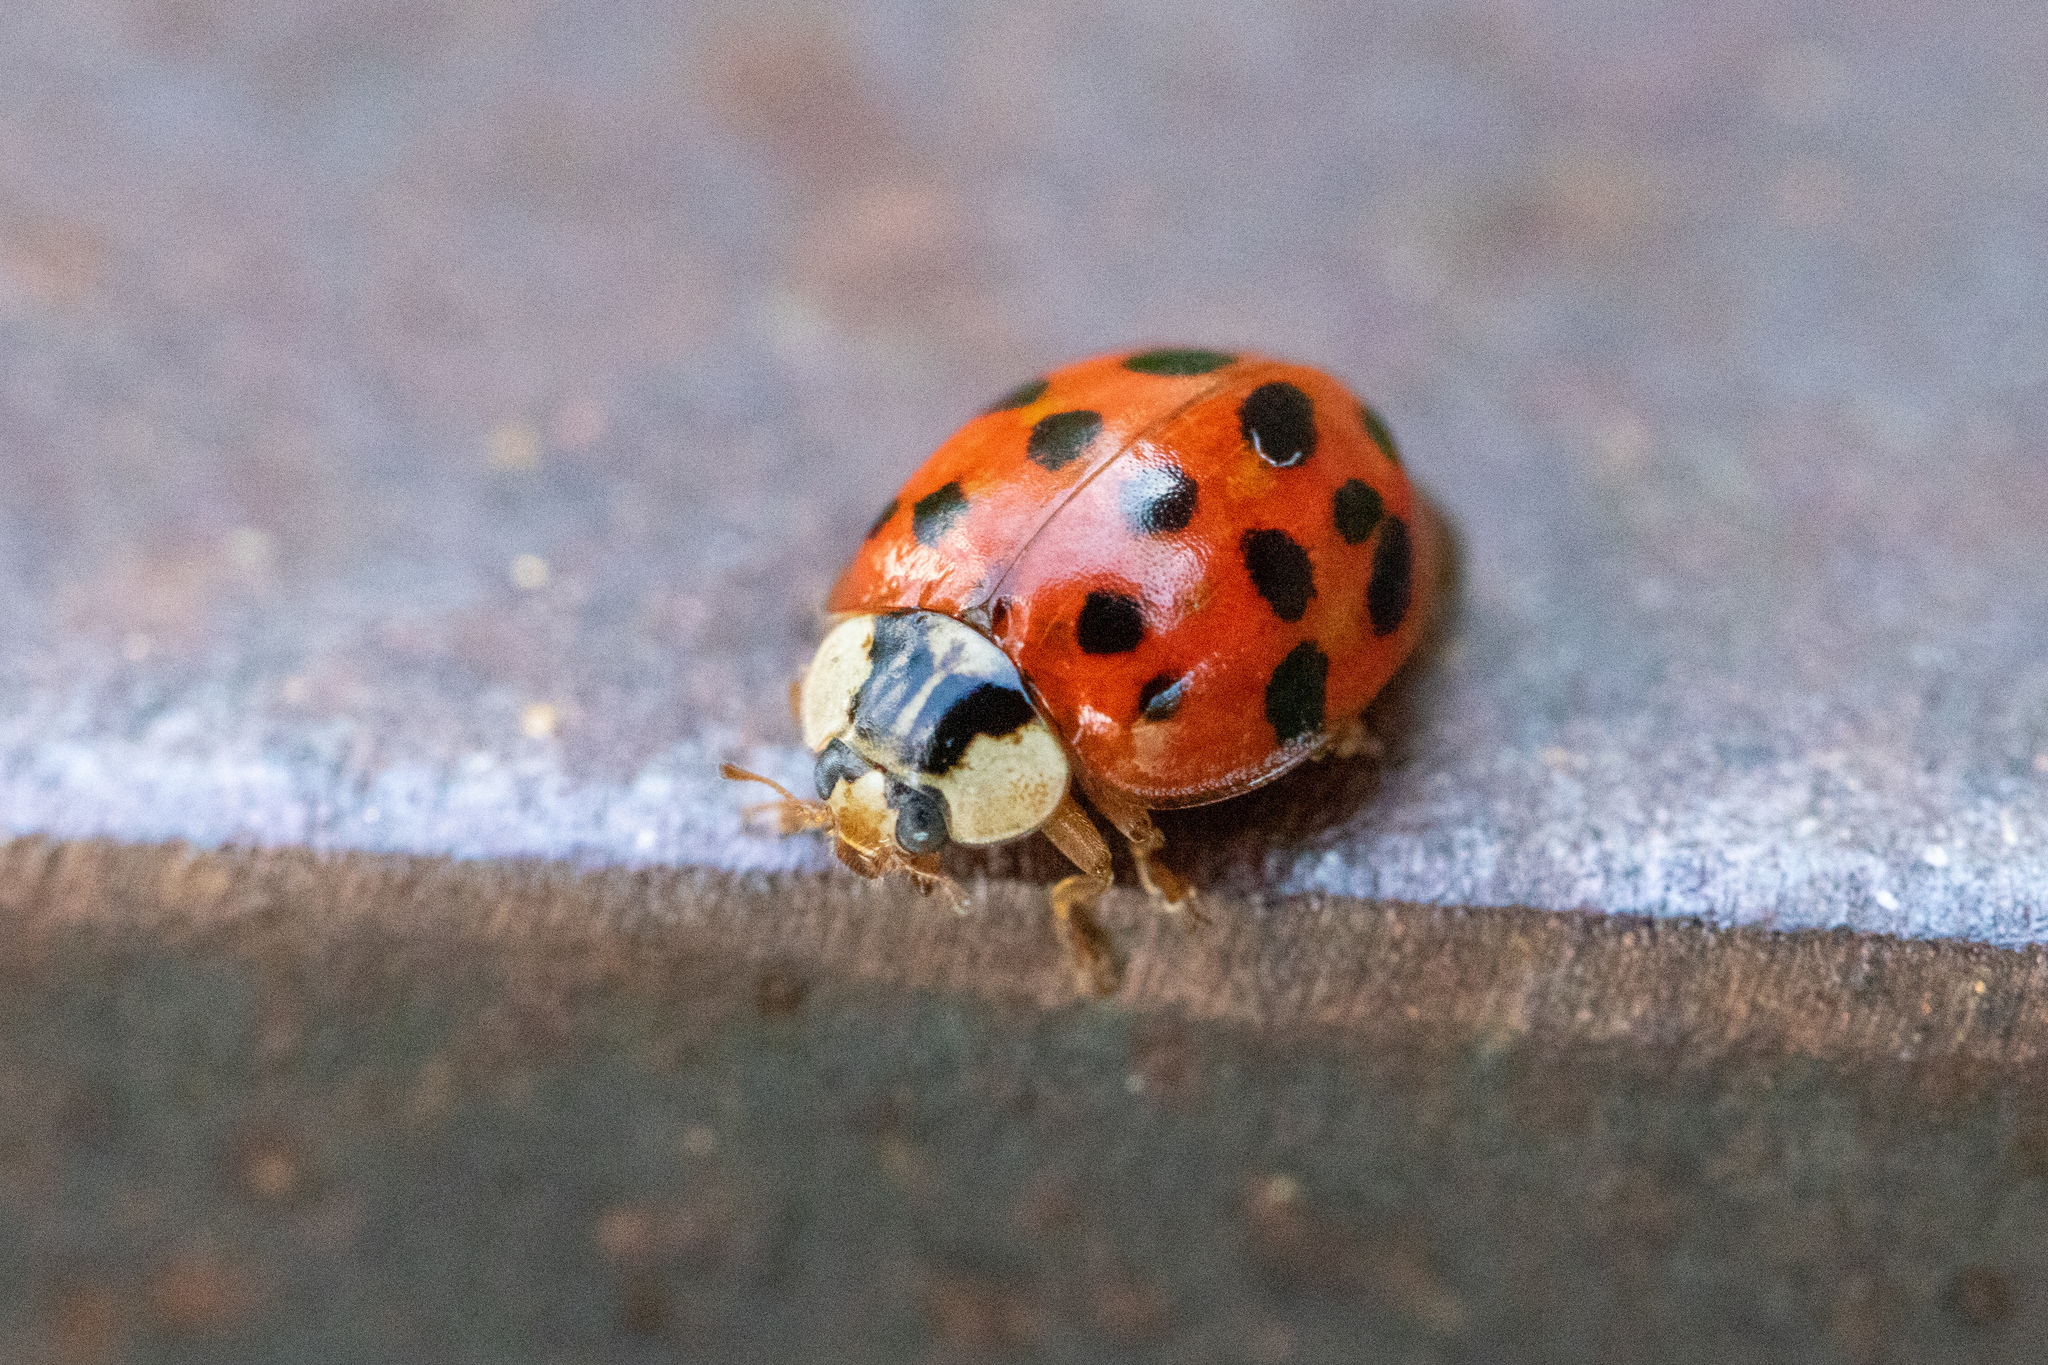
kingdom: Animalia
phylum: Arthropoda
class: Insecta
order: Coleoptera
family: Coccinellidae
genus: Harmonia
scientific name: Harmonia axyridis
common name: Harlequin ladybird
